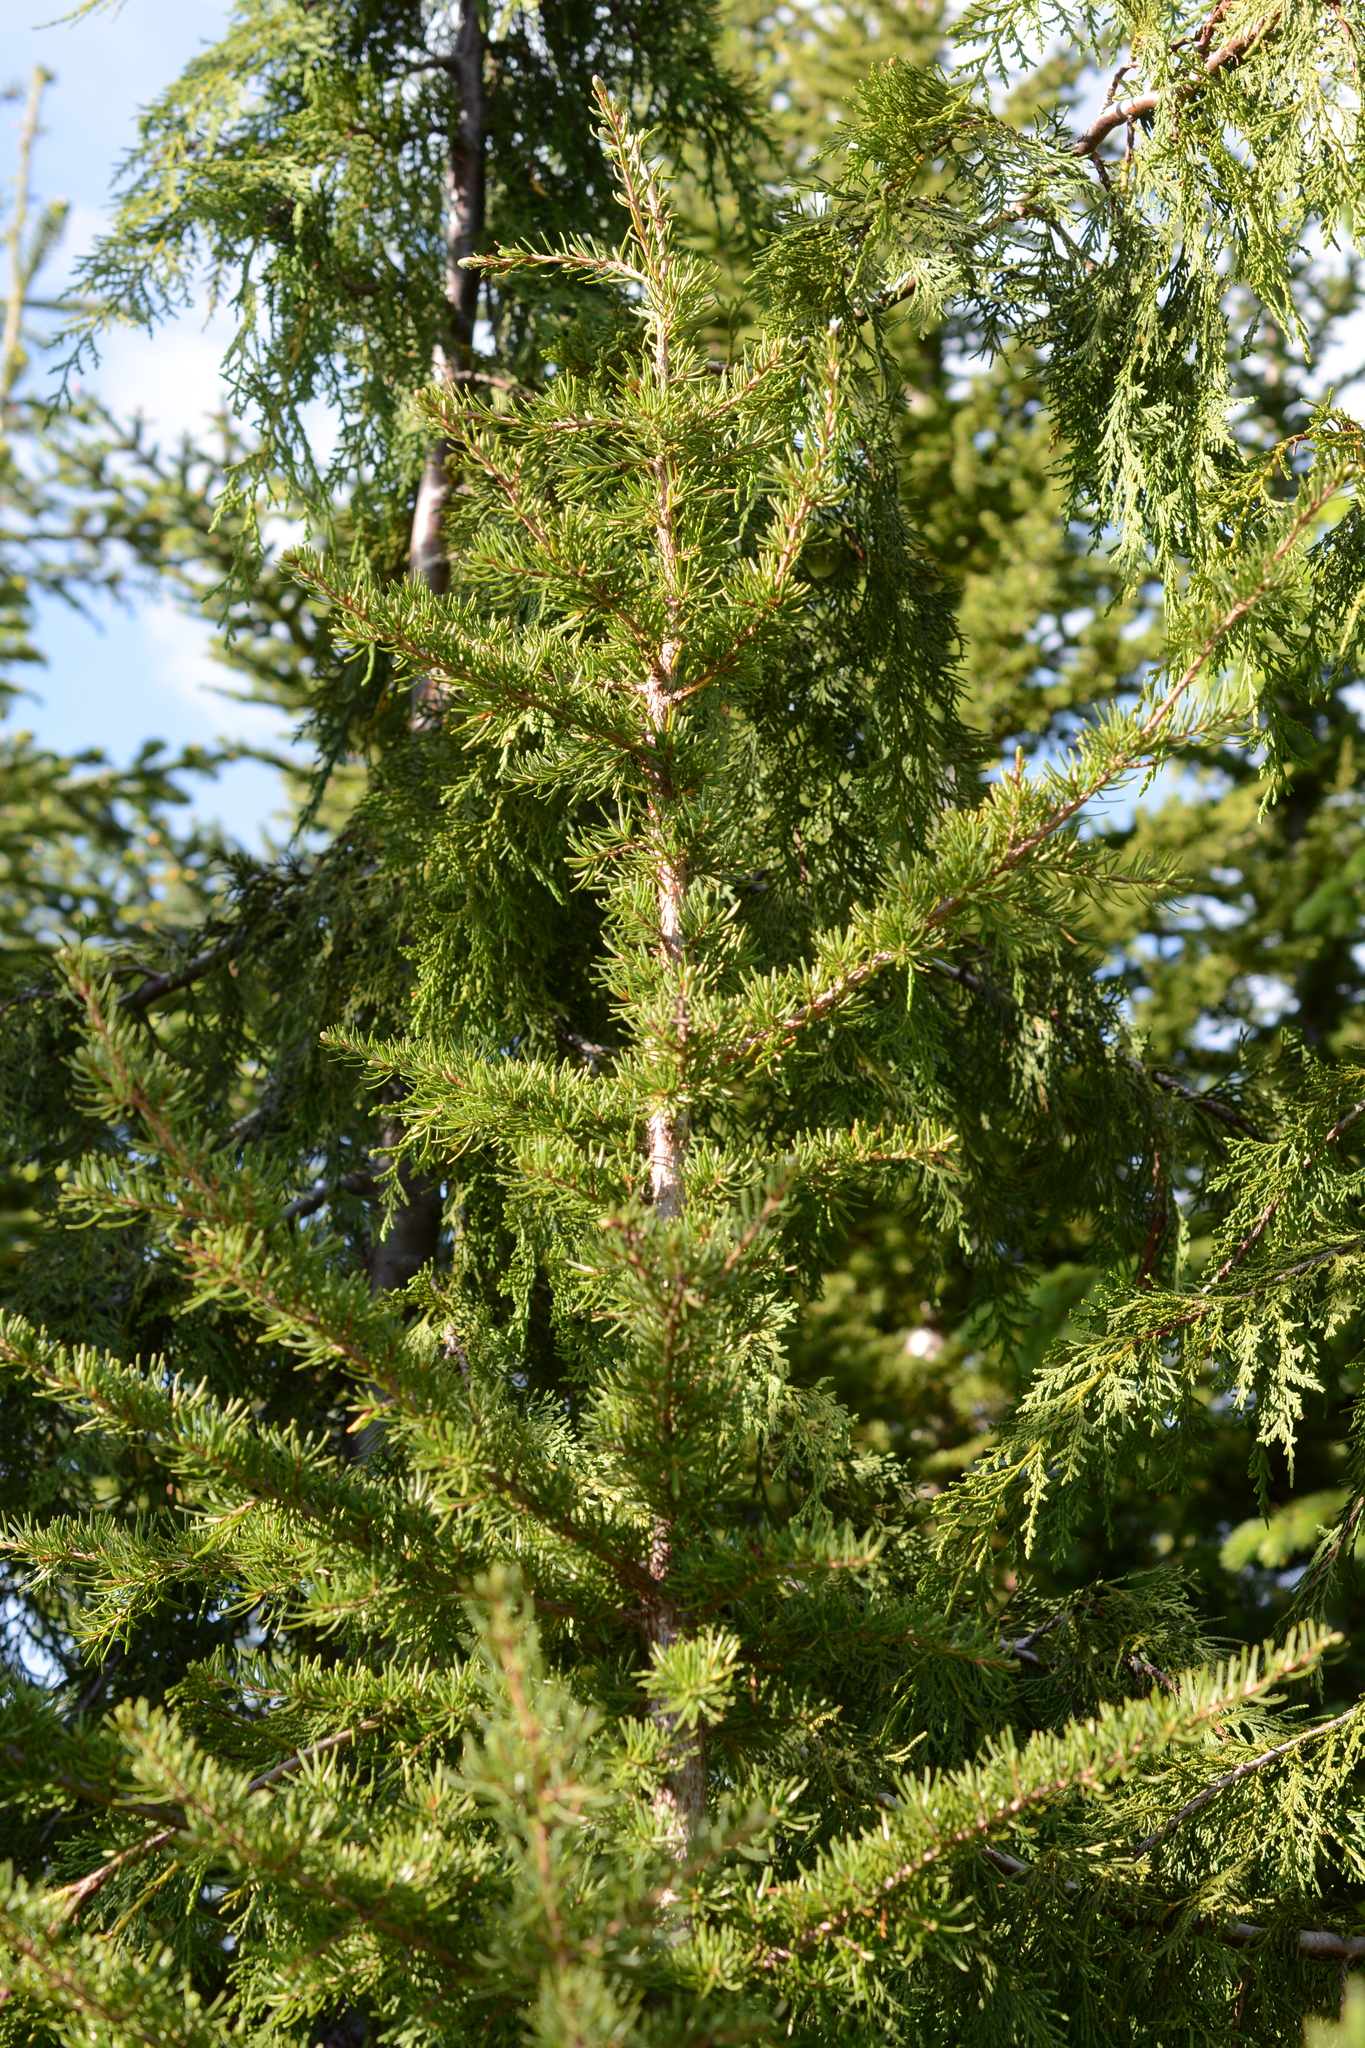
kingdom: Plantae
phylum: Tracheophyta
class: Pinopsida
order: Pinales
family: Pinaceae
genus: Tsuga
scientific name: Tsuga mertensiana
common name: Mountain hemlock
